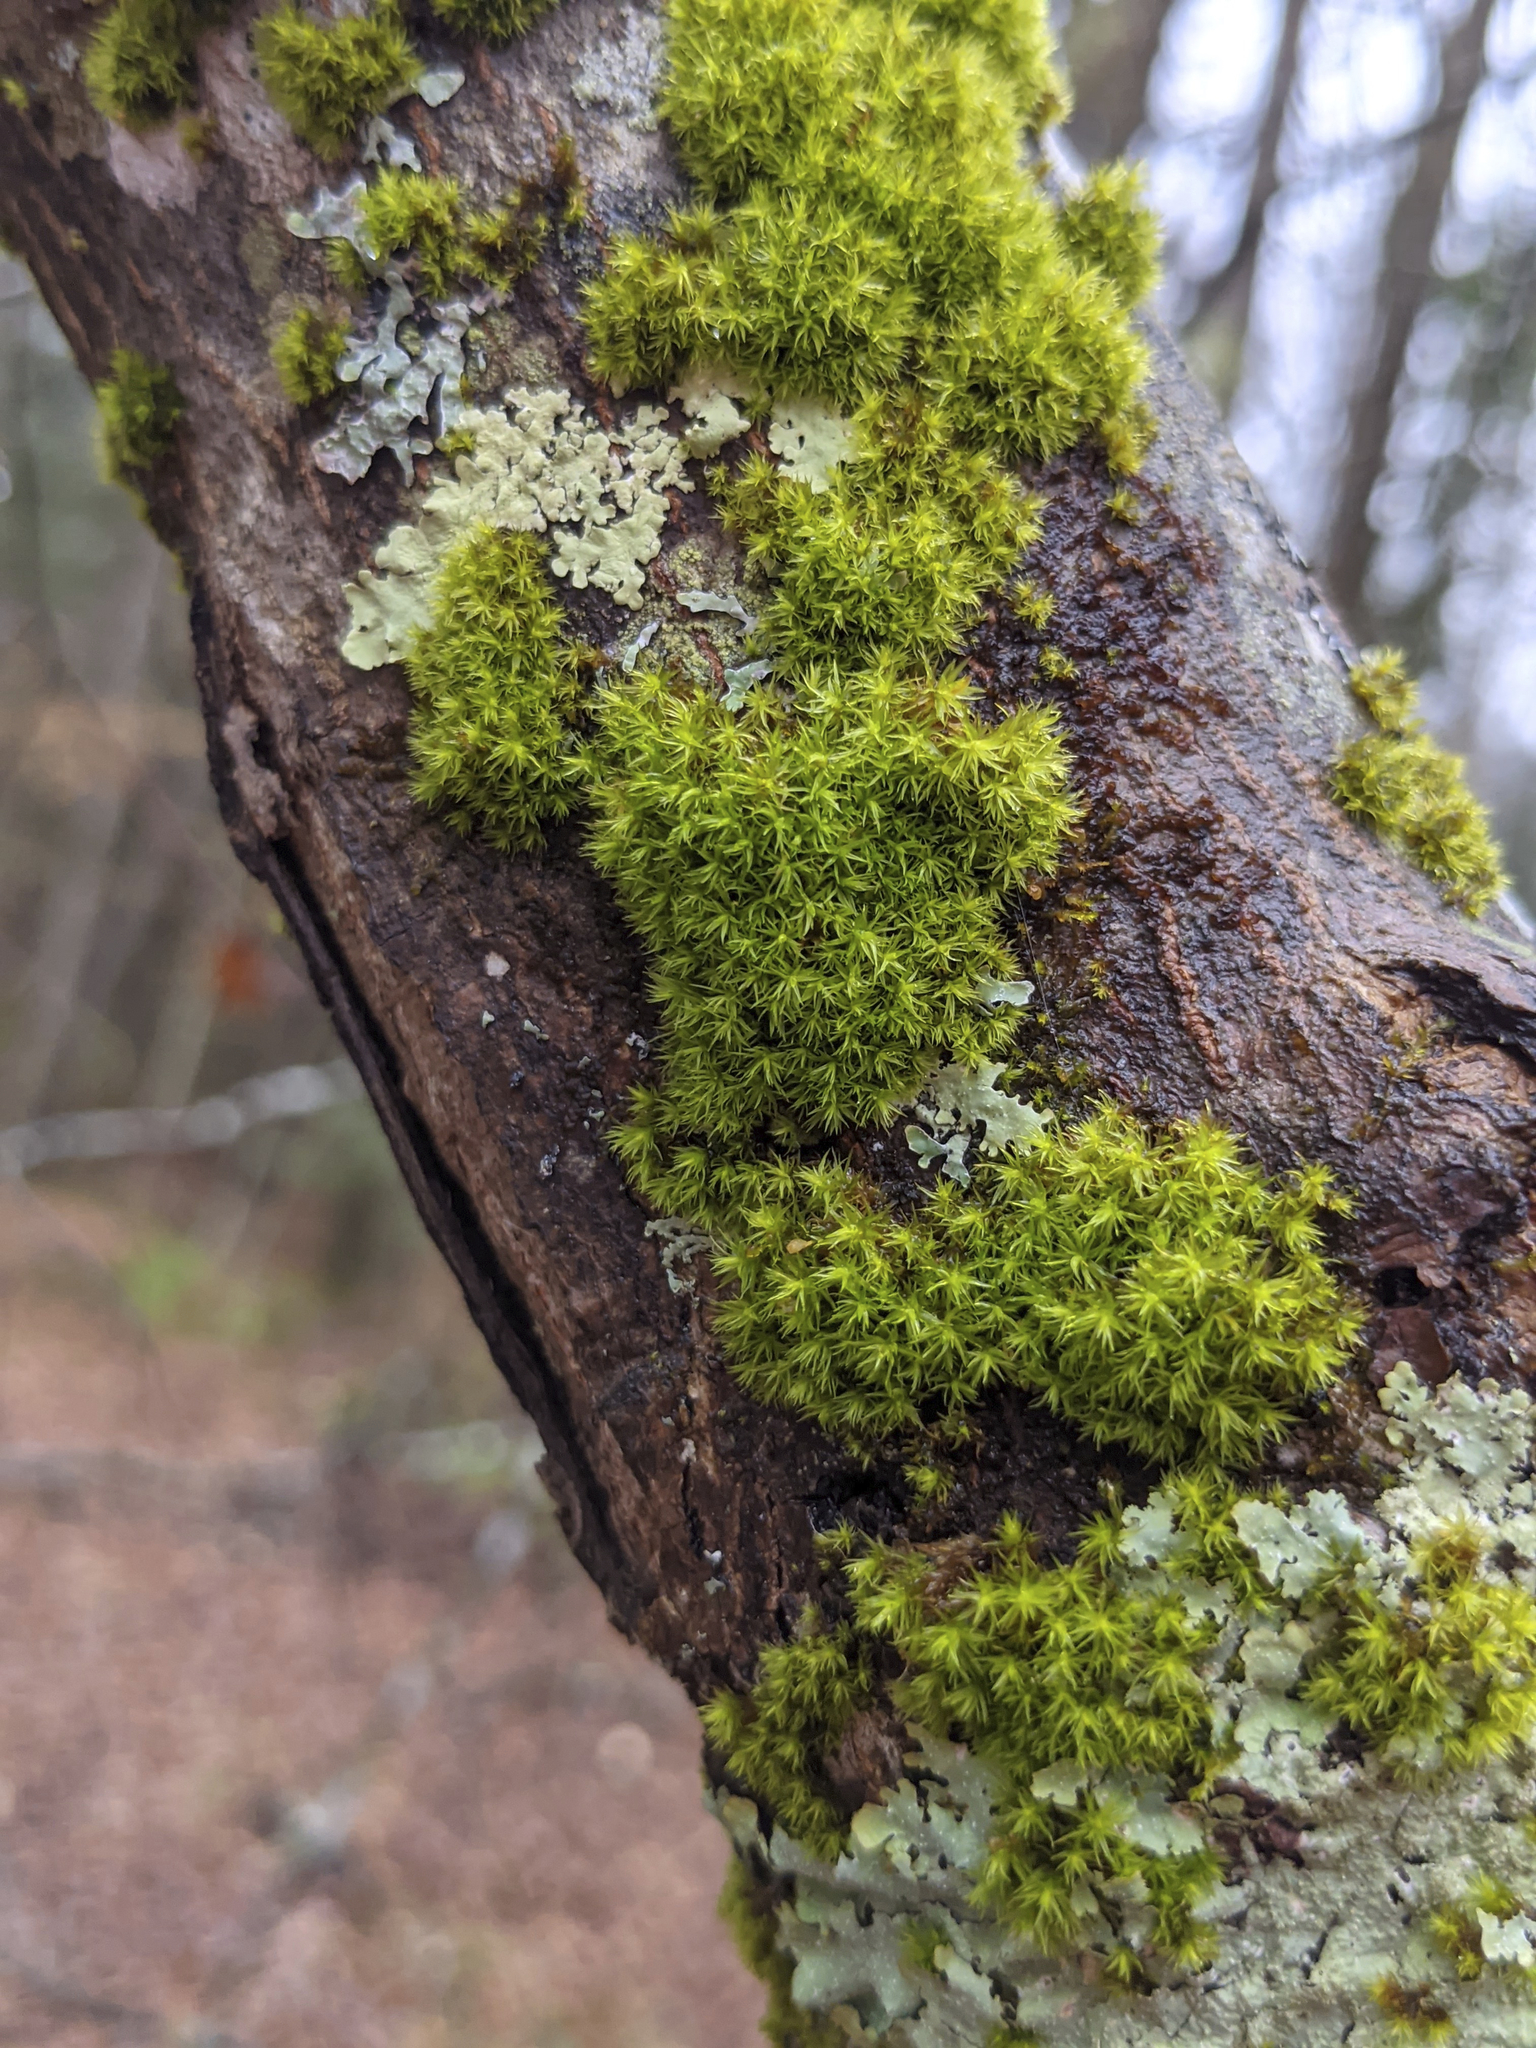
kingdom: Plantae
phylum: Bryophyta
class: Bryopsida
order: Orthotrichales
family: Orthotrichaceae
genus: Ulota
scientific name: Ulota crispa
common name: Crisped pincushion moss
